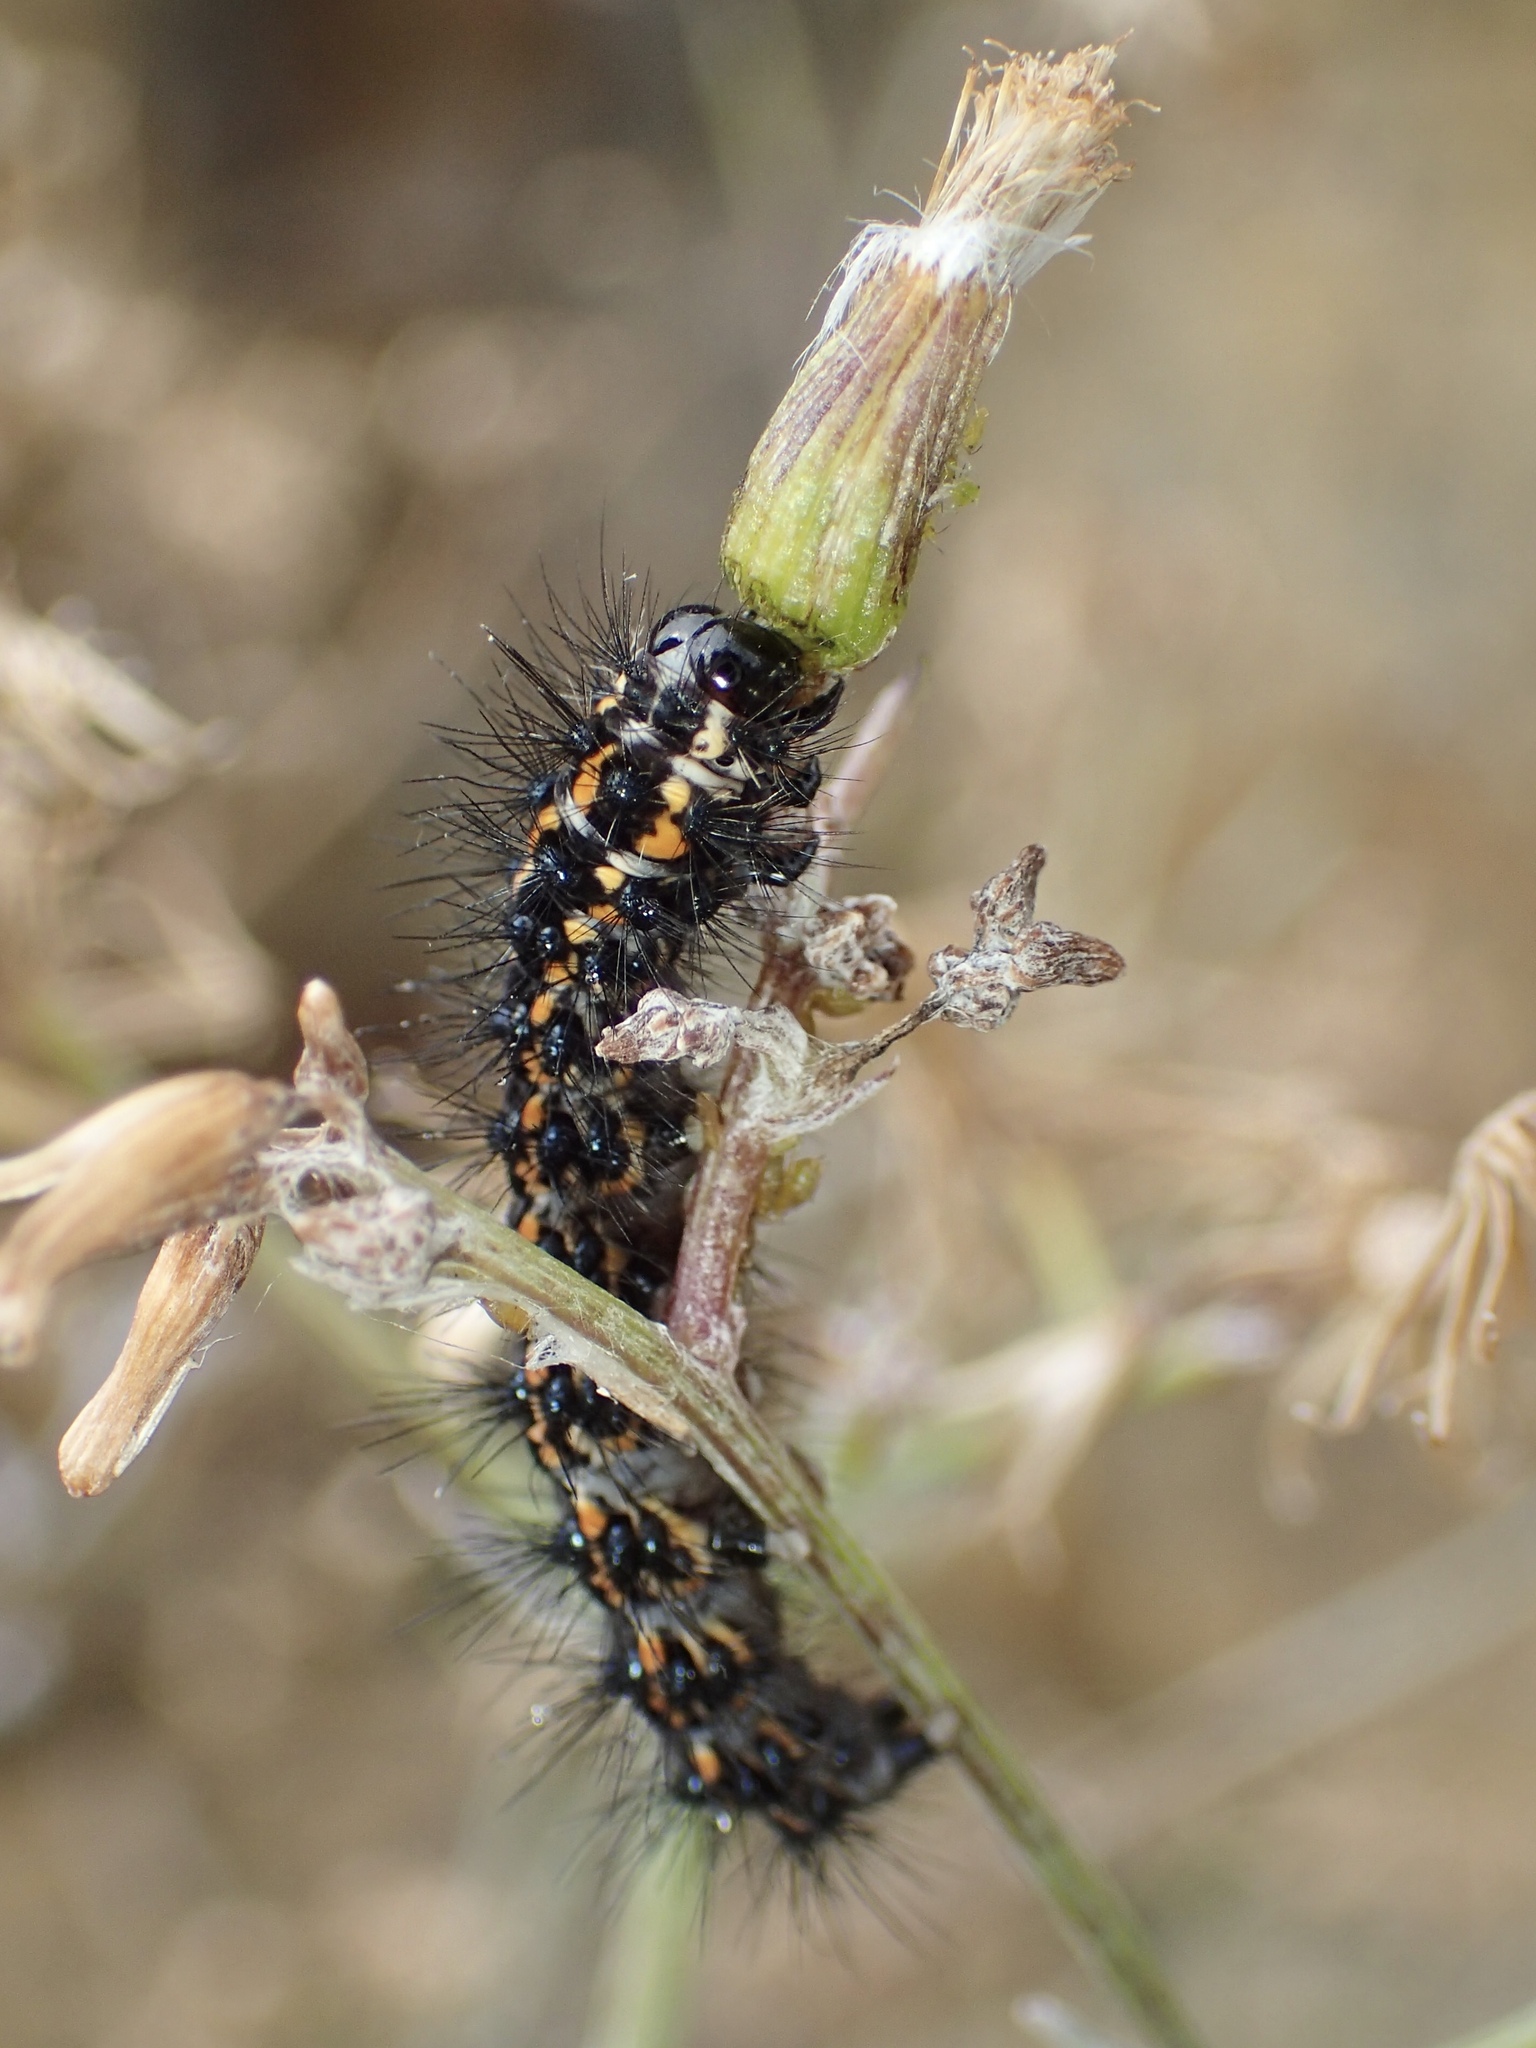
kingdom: Animalia
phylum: Arthropoda
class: Insecta
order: Lepidoptera
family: Erebidae
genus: Nyctemera
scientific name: Nyctemera annulatum
